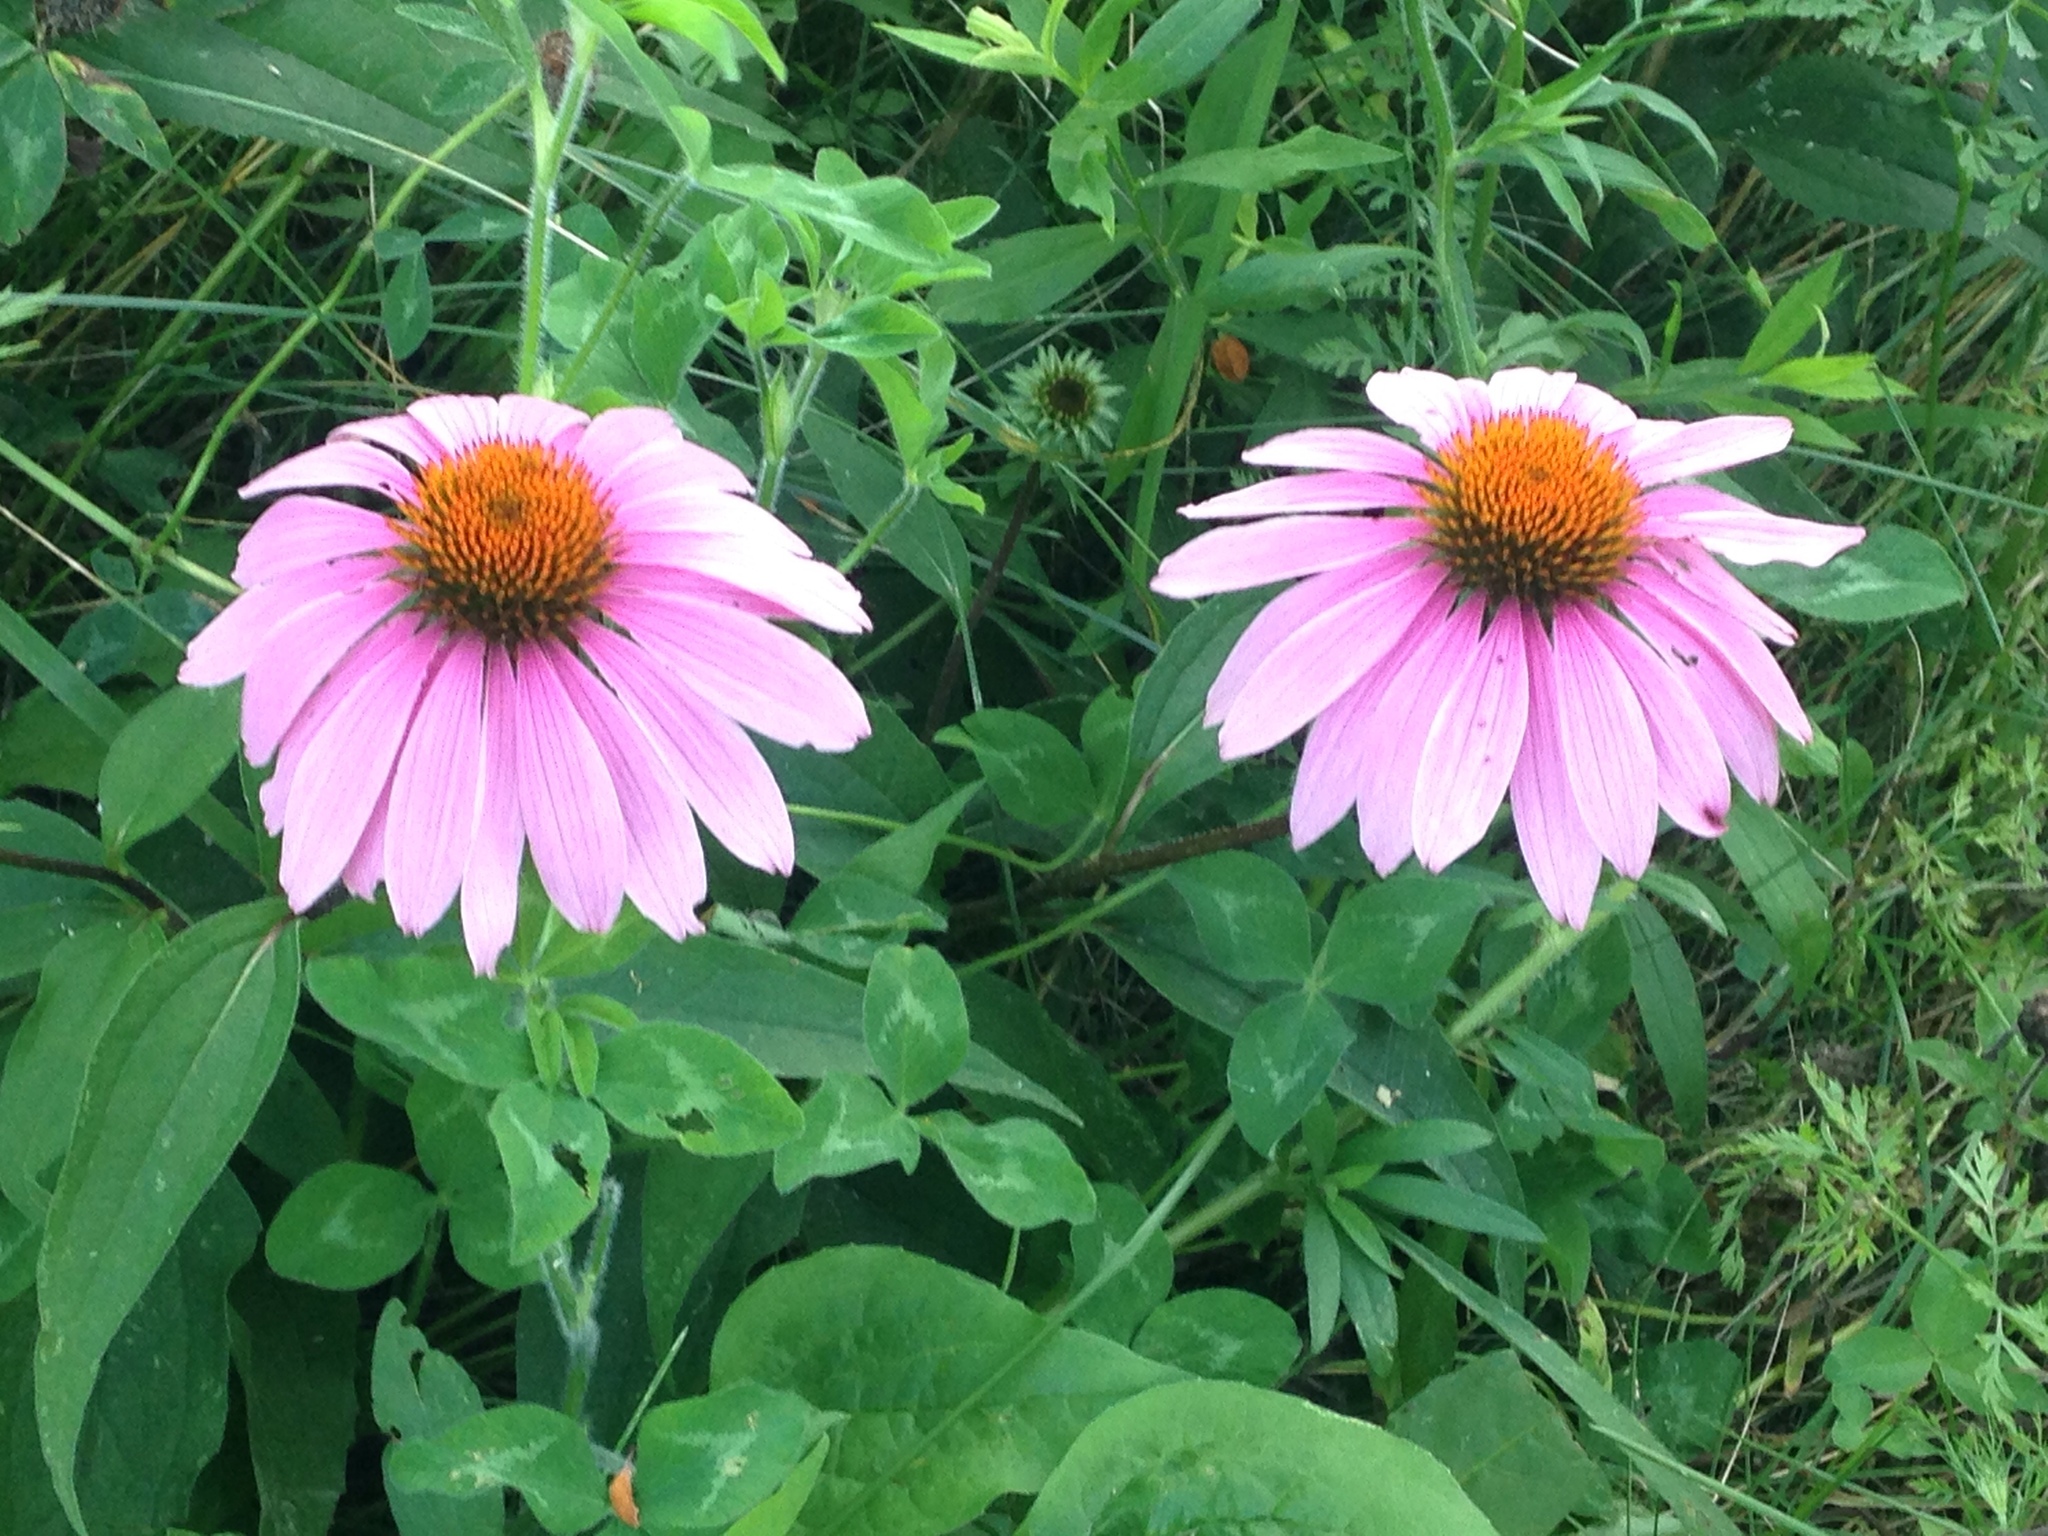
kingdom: Plantae
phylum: Tracheophyta
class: Magnoliopsida
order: Asterales
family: Asteraceae
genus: Echinacea
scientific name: Echinacea purpurea
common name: Broad-leaved purple coneflower
